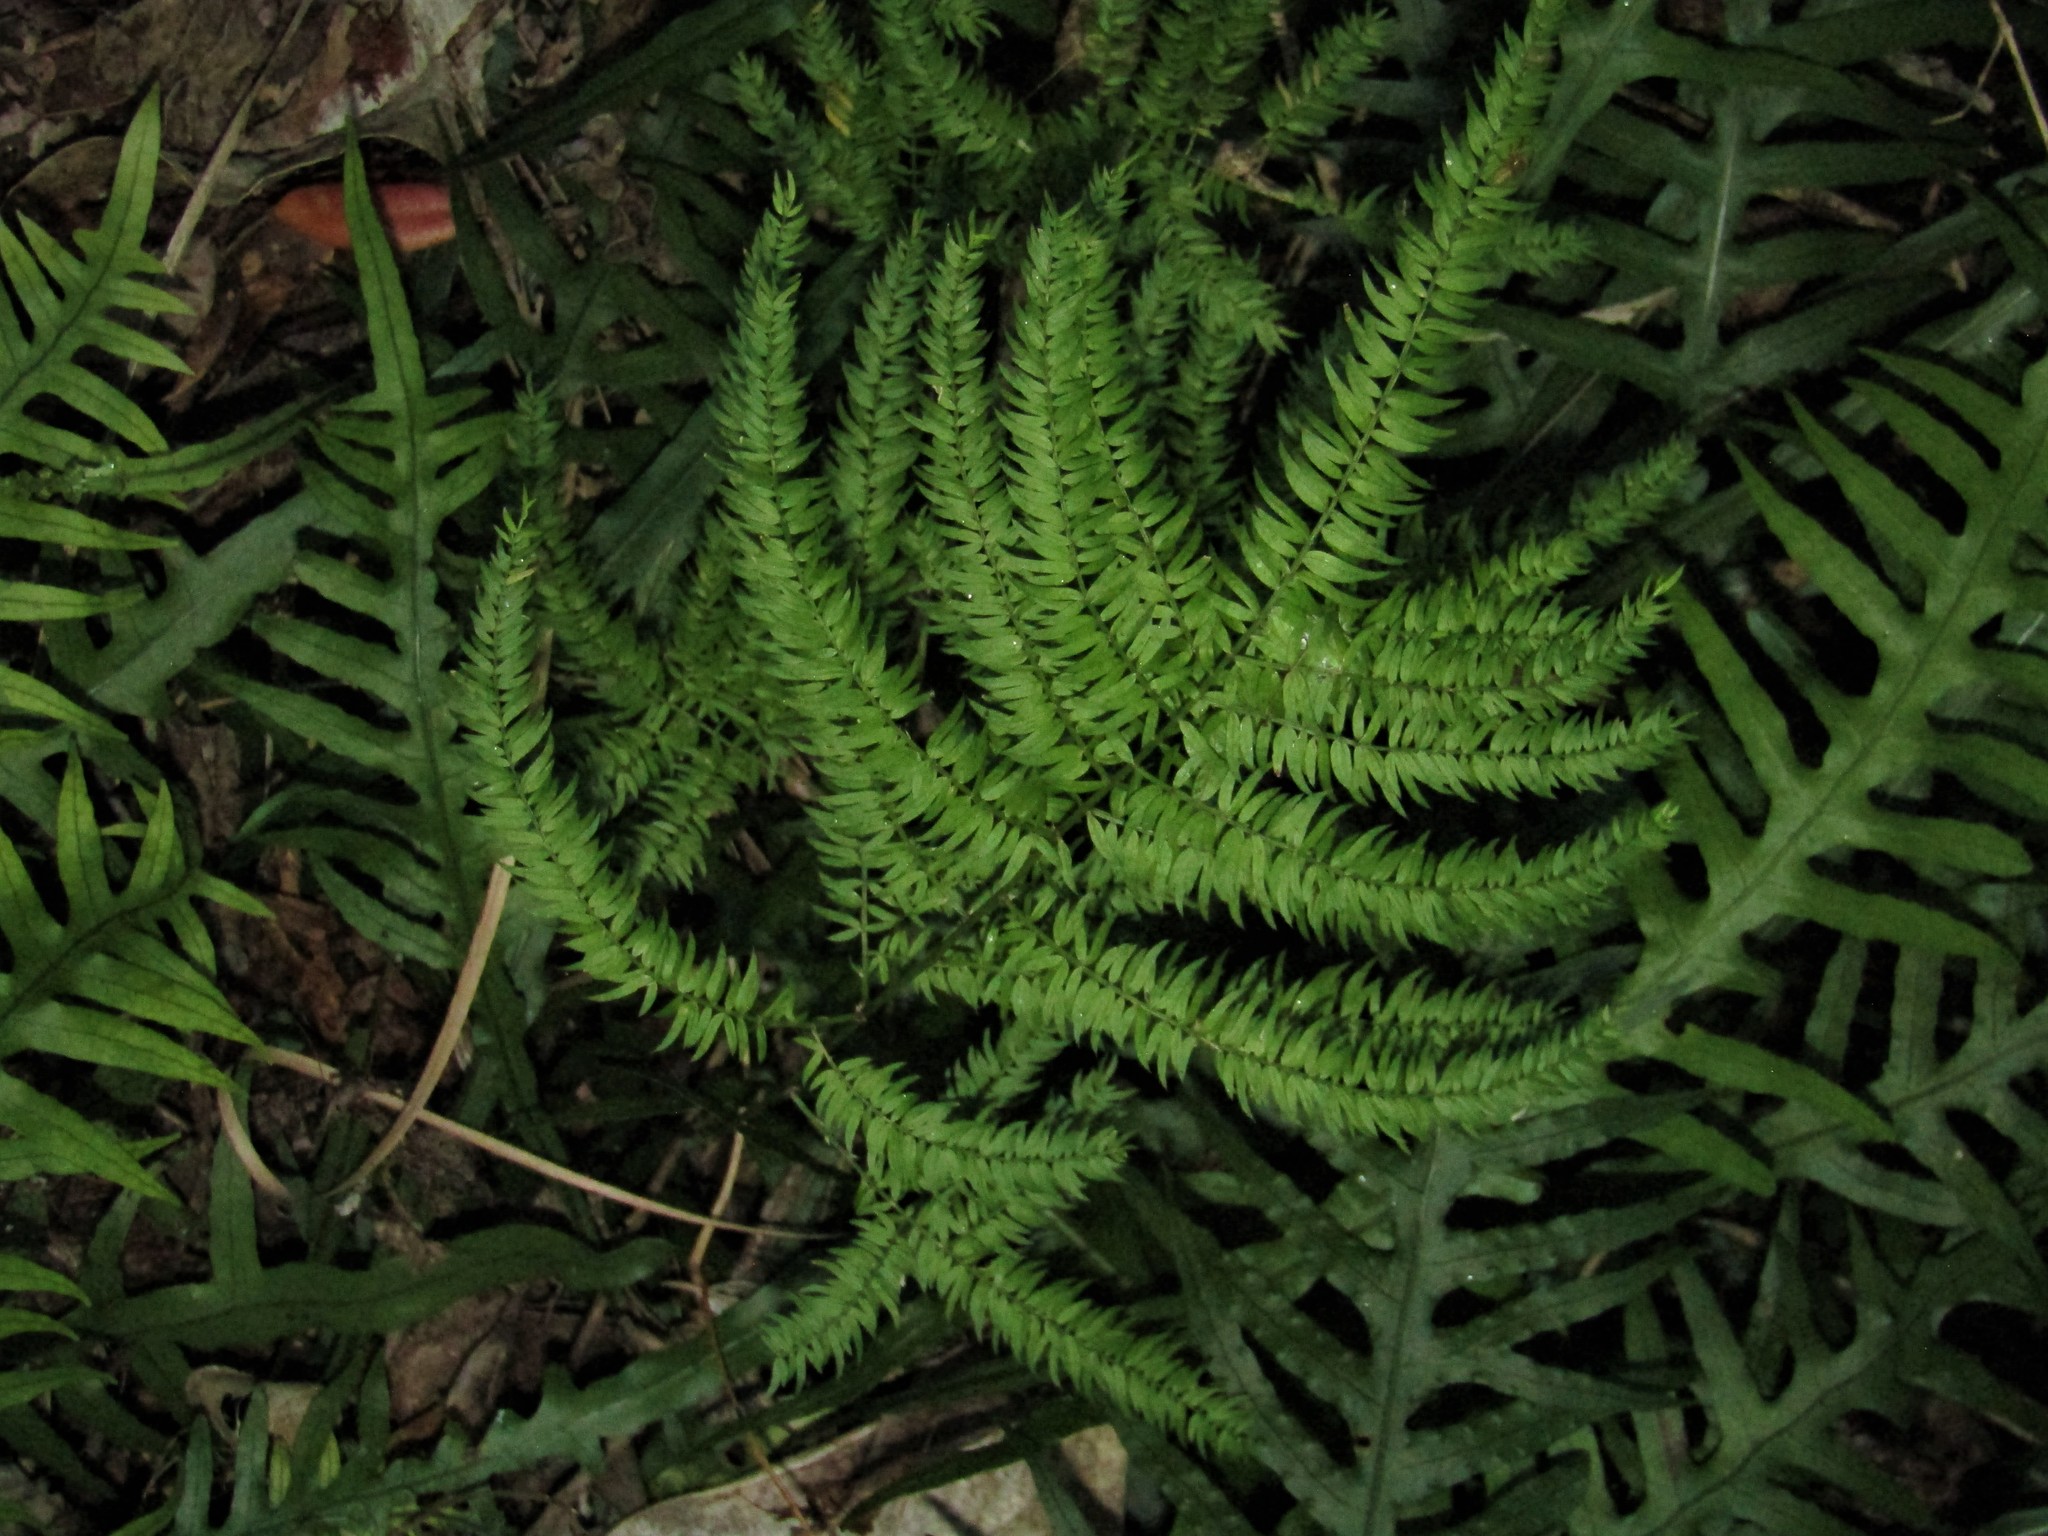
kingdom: Plantae
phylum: Tracheophyta
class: Liliopsida
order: Asparagales
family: Asparagaceae
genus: Asparagus
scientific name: Asparagus scandens
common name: Asparagus-fern
